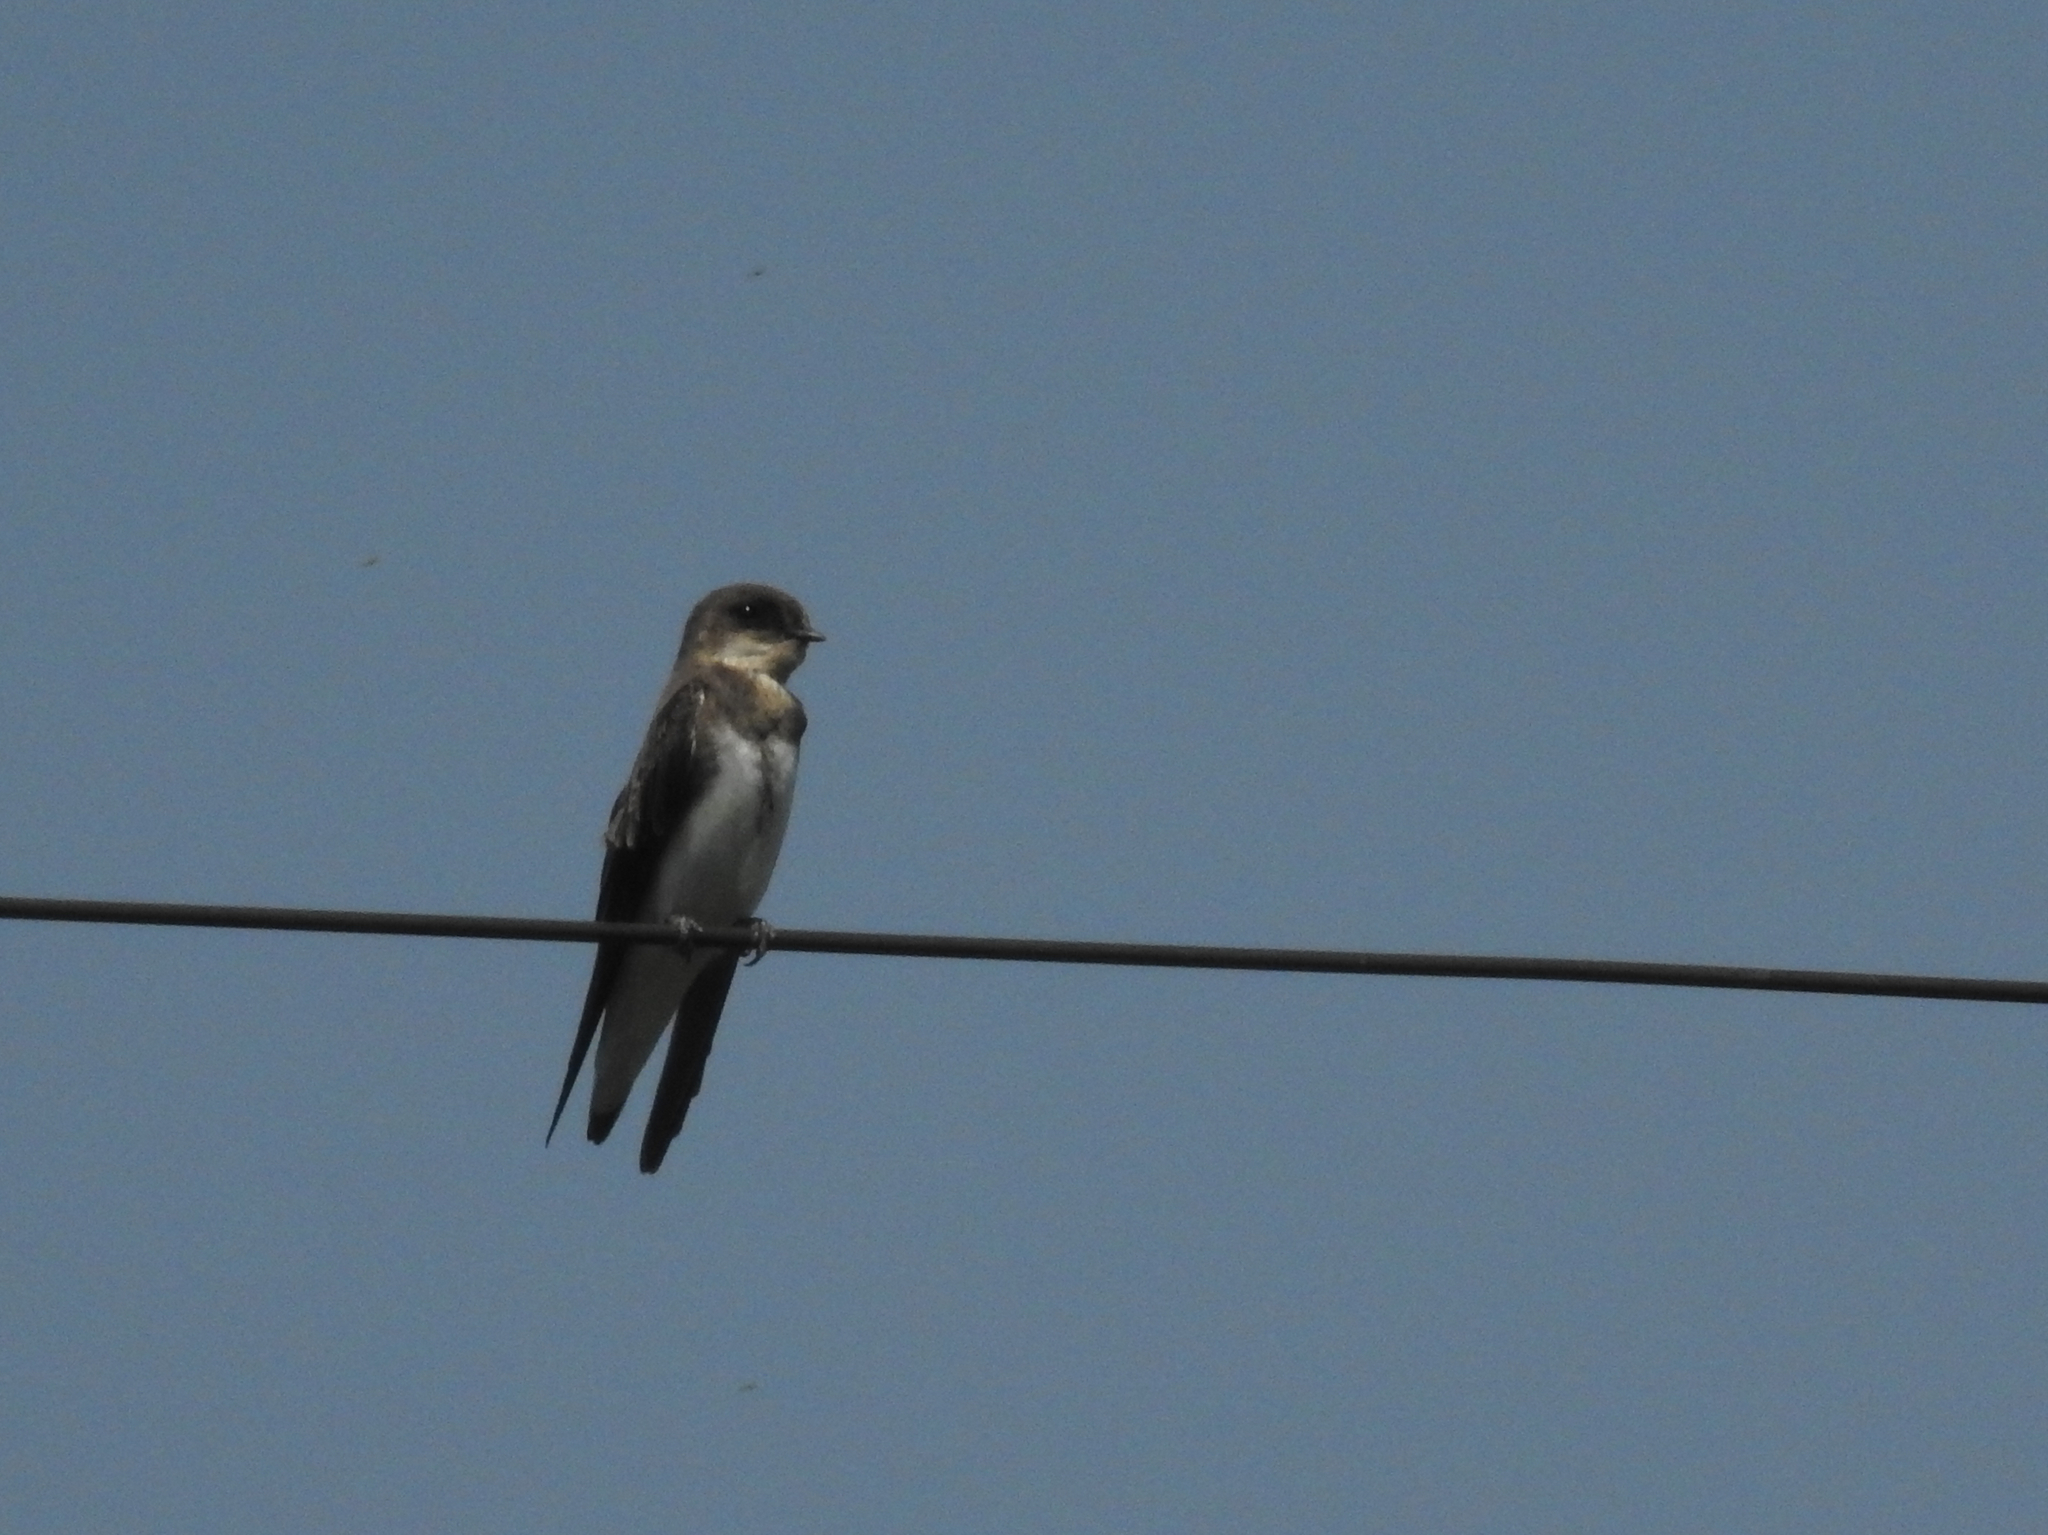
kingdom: Animalia
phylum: Chordata
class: Aves
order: Passeriformes
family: Hirundinidae
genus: Riparia
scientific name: Riparia riparia
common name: Sand martin
